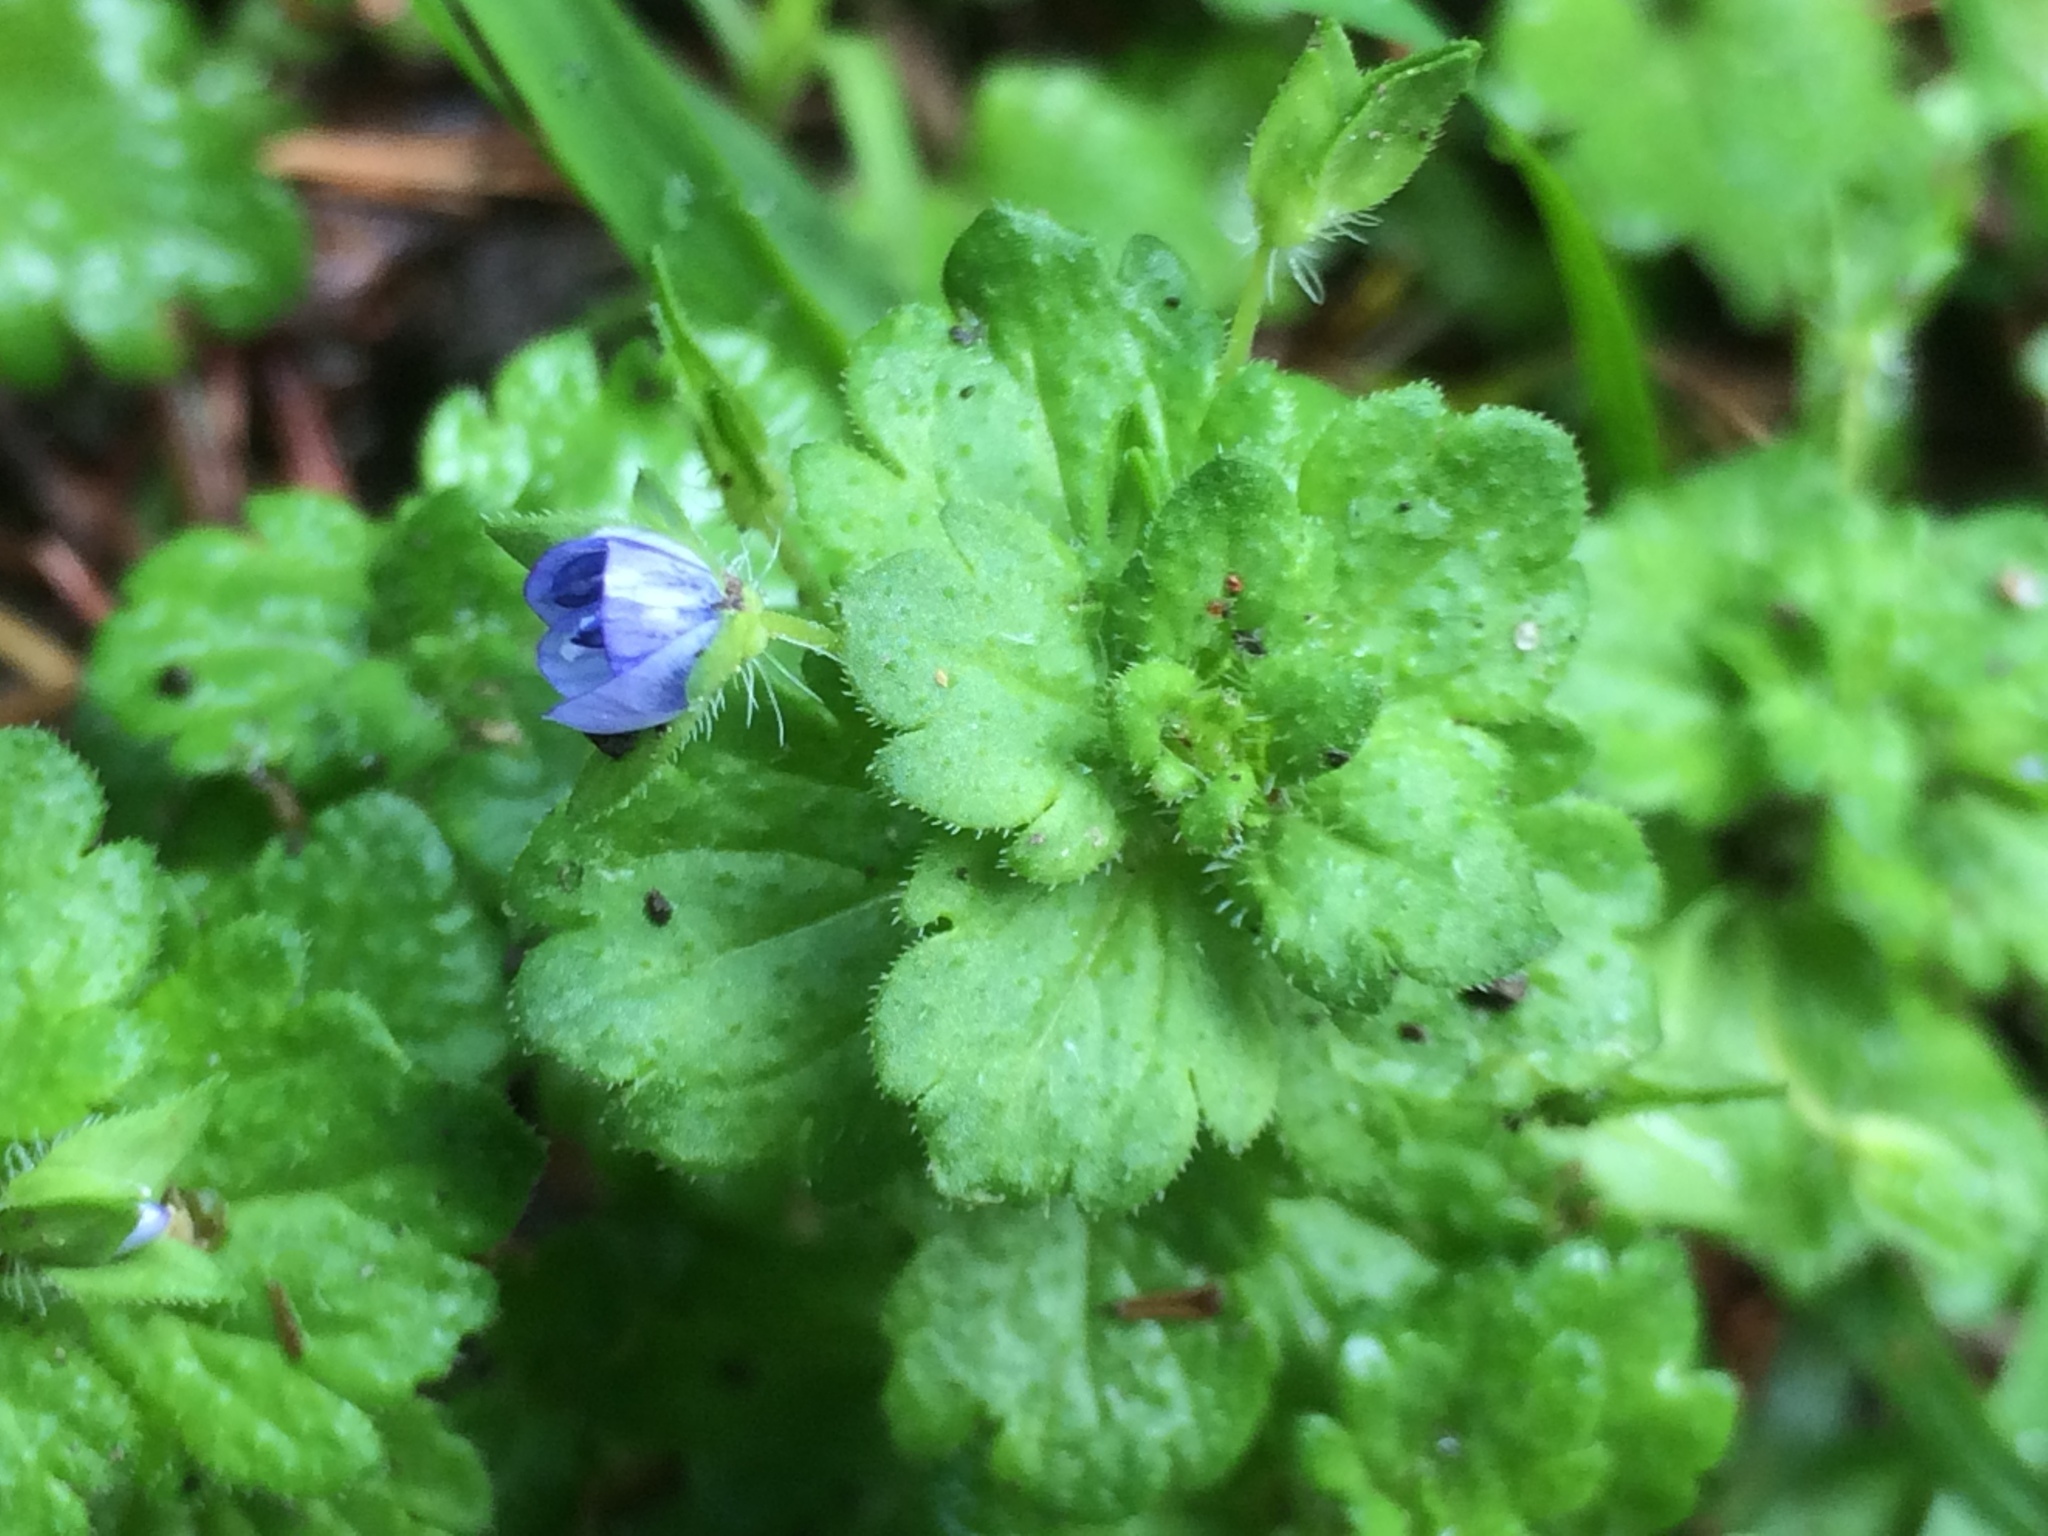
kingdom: Plantae
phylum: Tracheophyta
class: Magnoliopsida
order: Lamiales
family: Plantaginaceae
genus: Veronica
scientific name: Veronica persica
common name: Common field-speedwell
